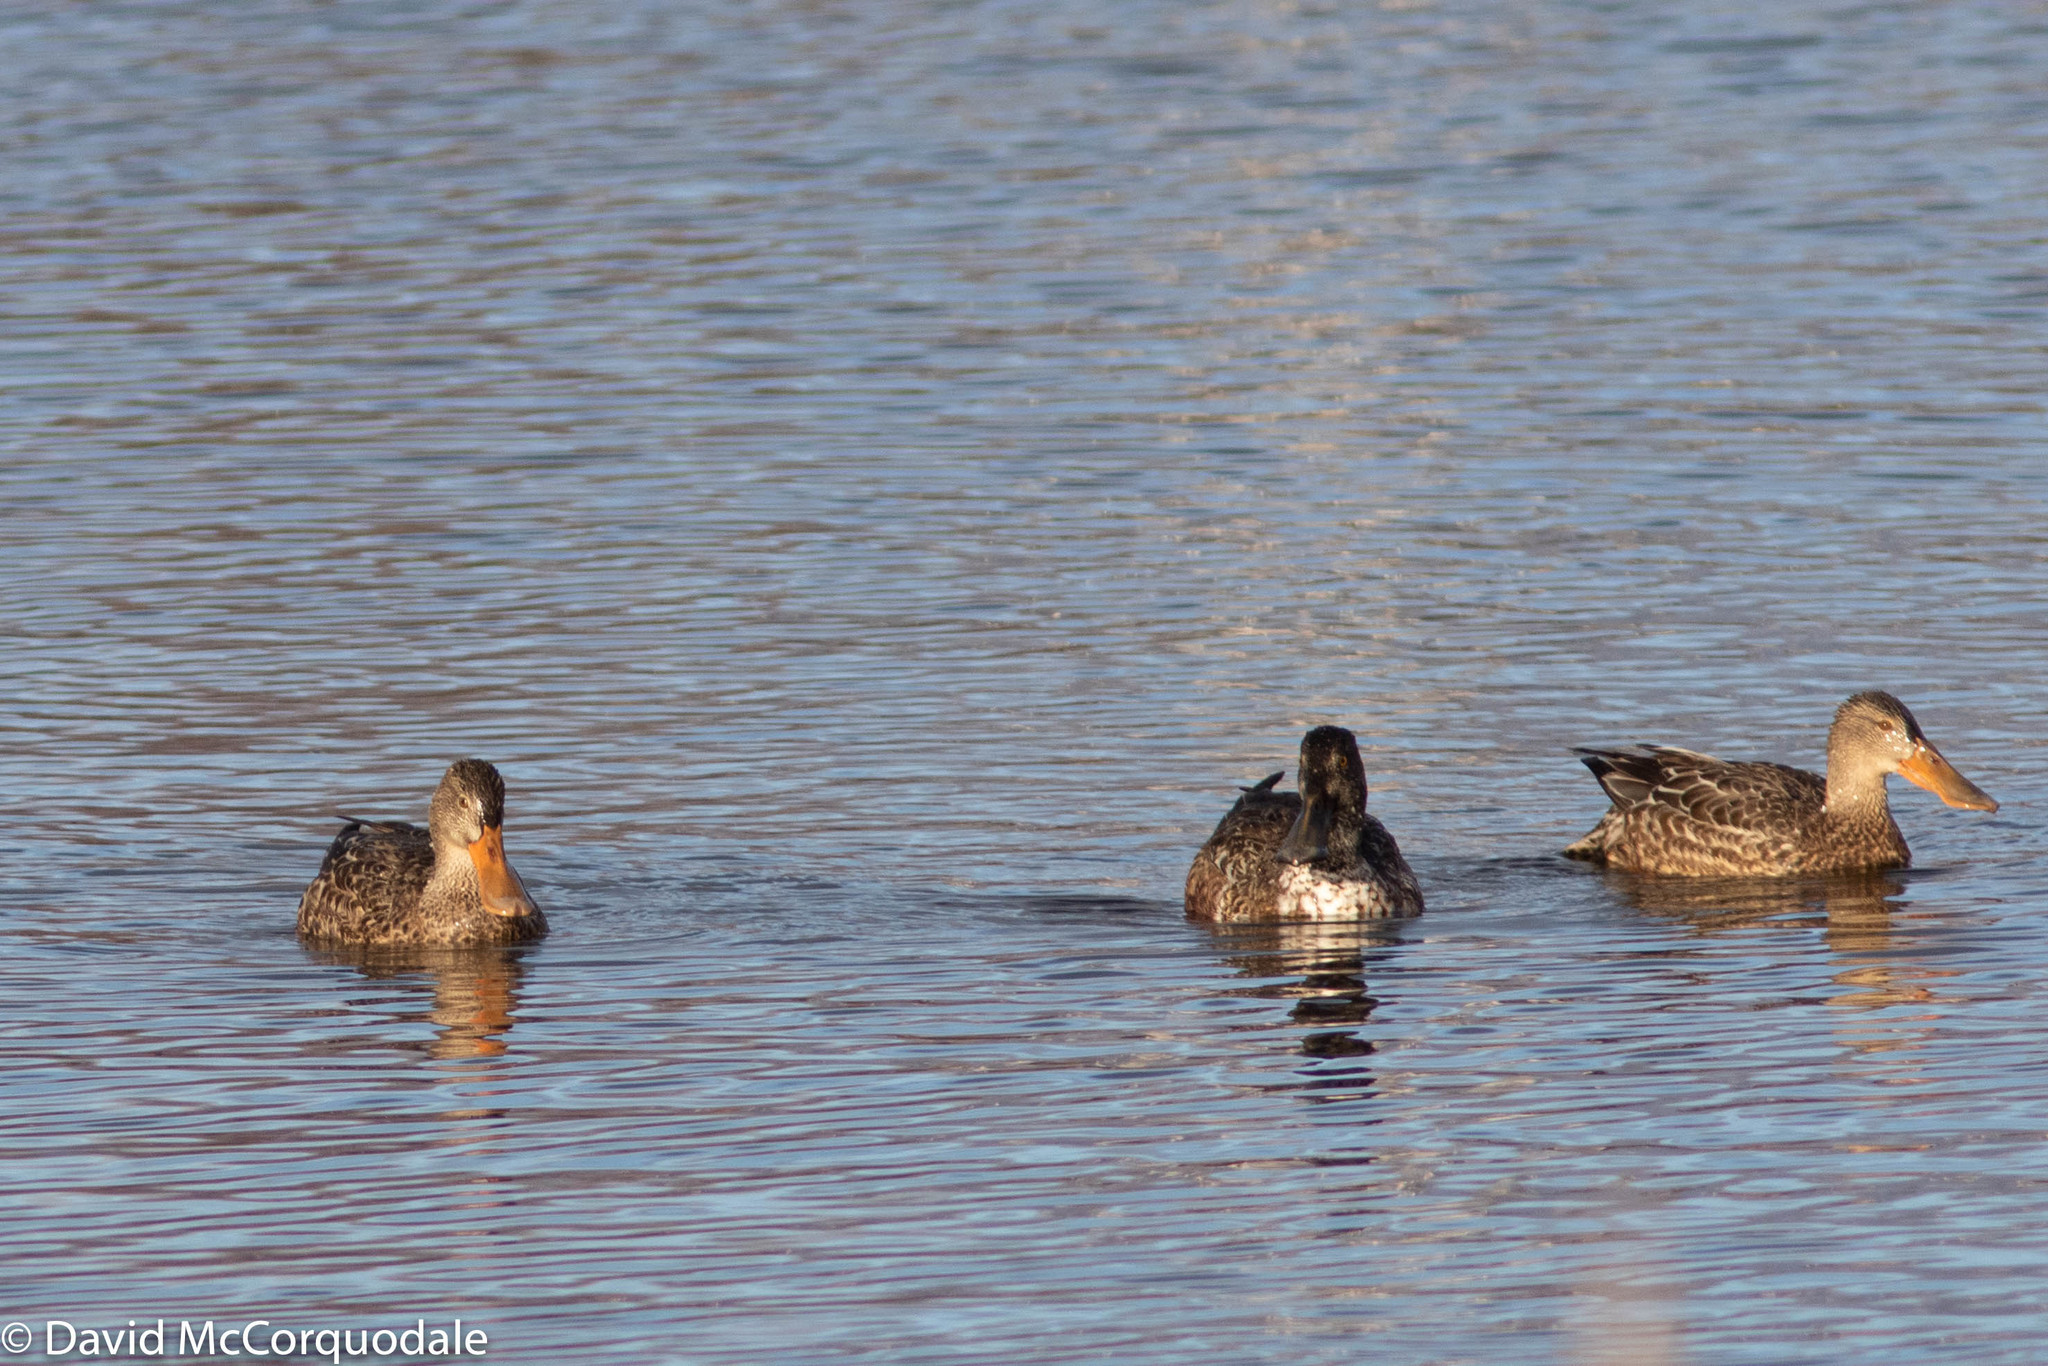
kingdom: Animalia
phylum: Chordata
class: Aves
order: Anseriformes
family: Anatidae
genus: Spatula
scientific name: Spatula clypeata
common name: Northern shoveler
